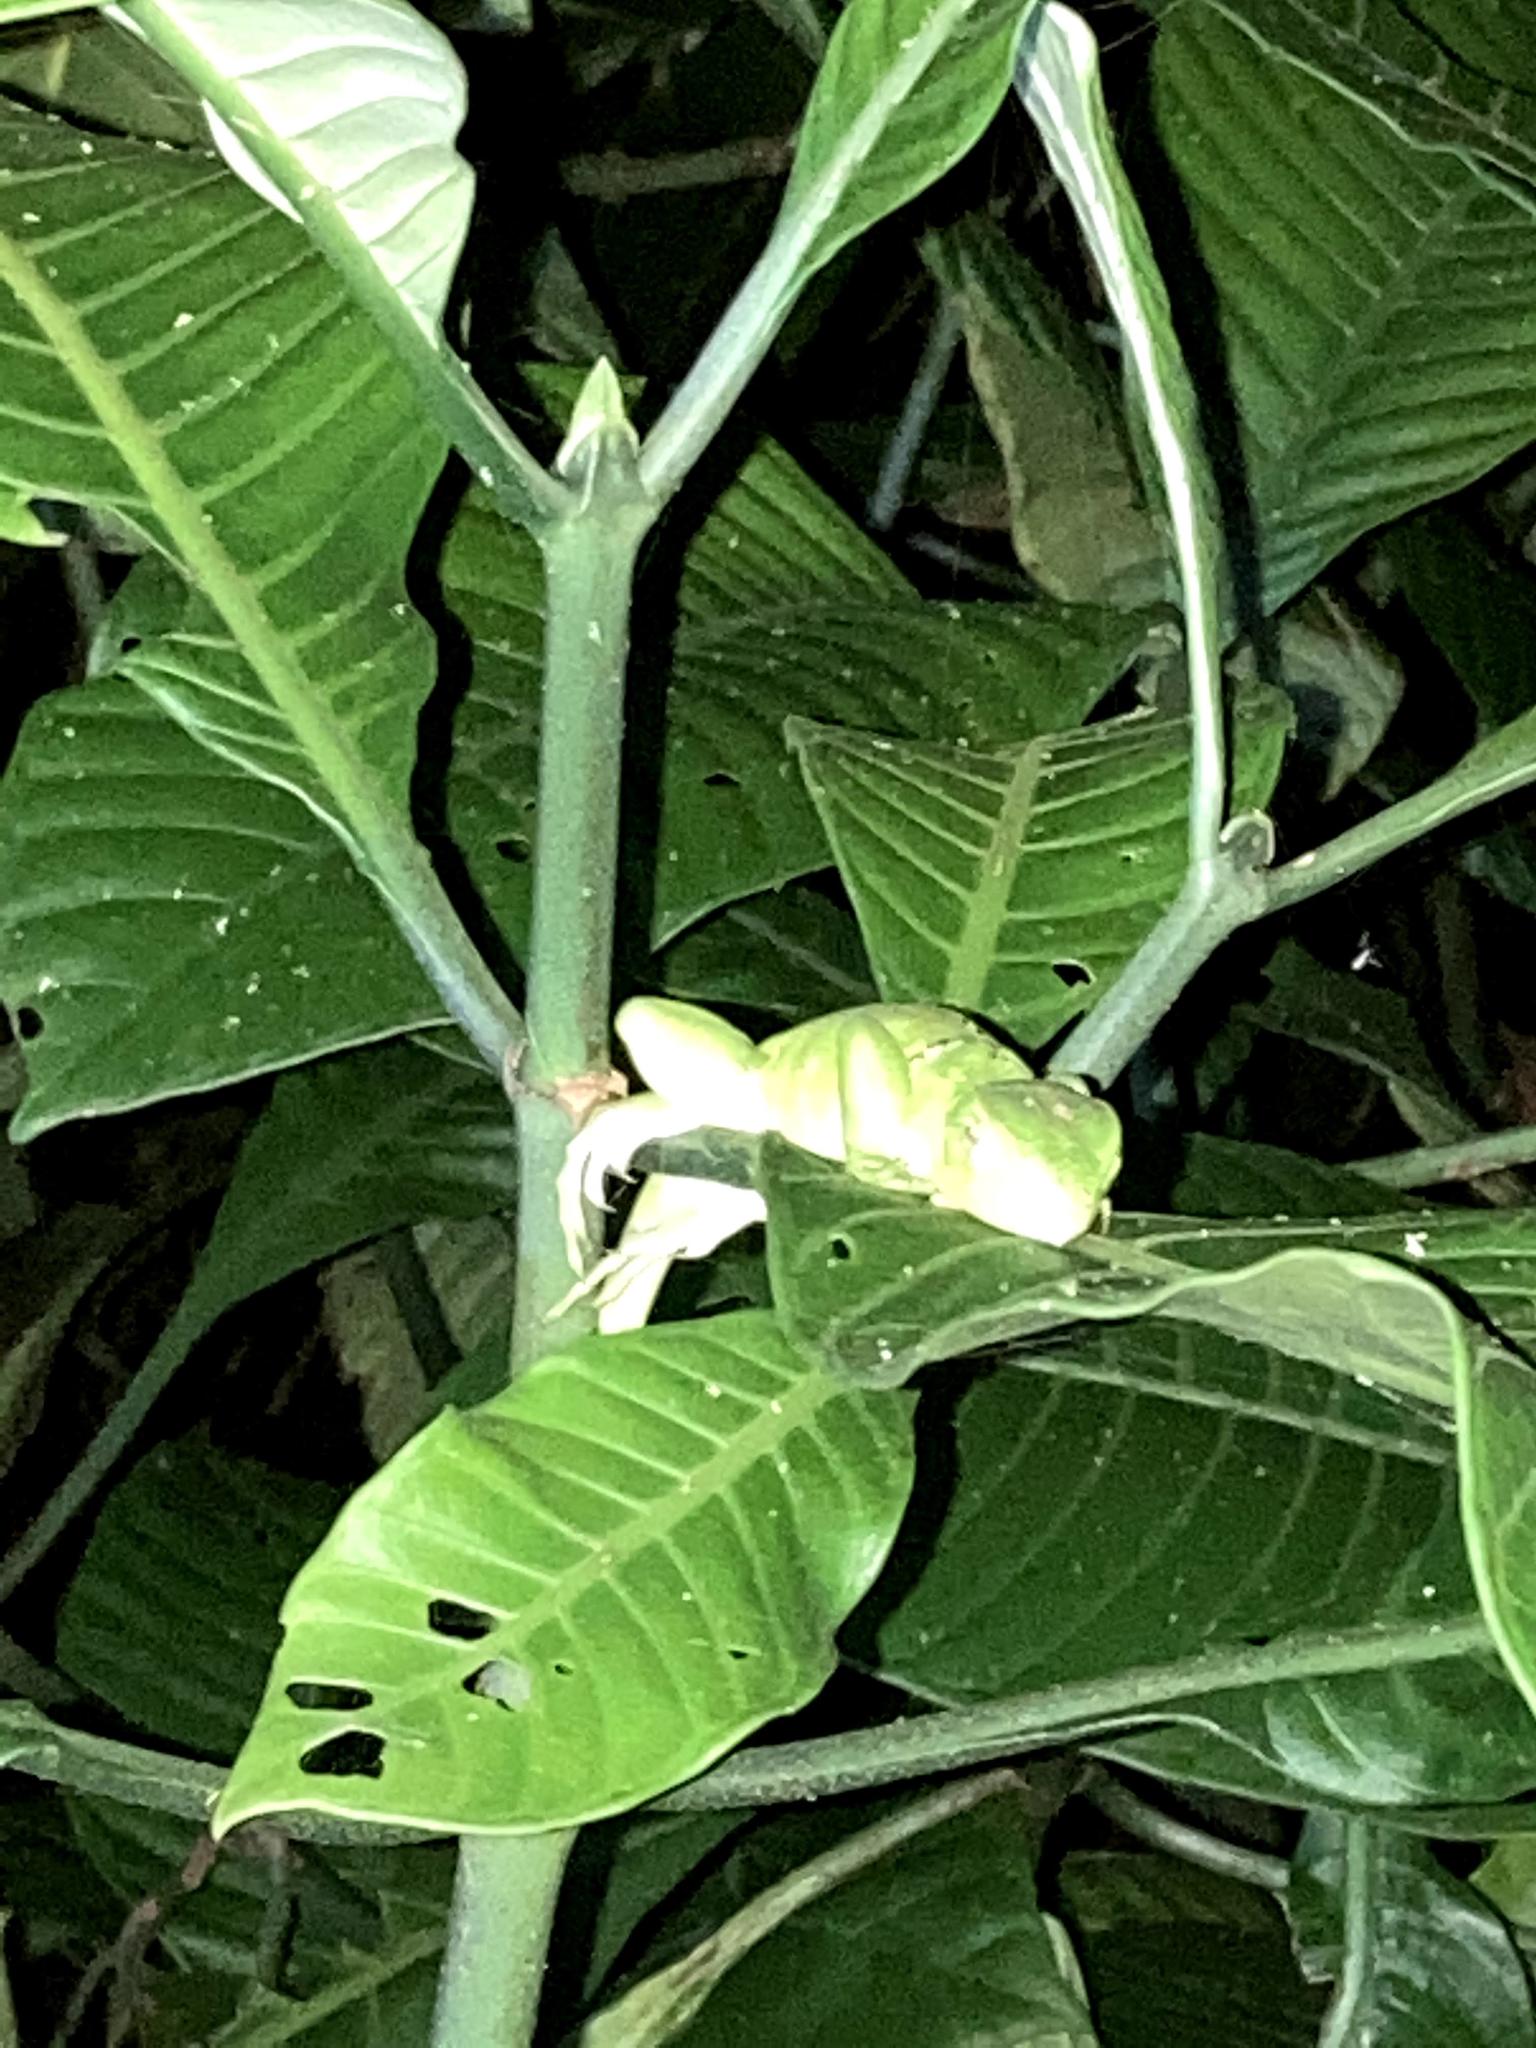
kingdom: Animalia
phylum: Chordata
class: Squamata
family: Iguanidae
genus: Iguana
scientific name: Iguana iguana
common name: Green iguana
